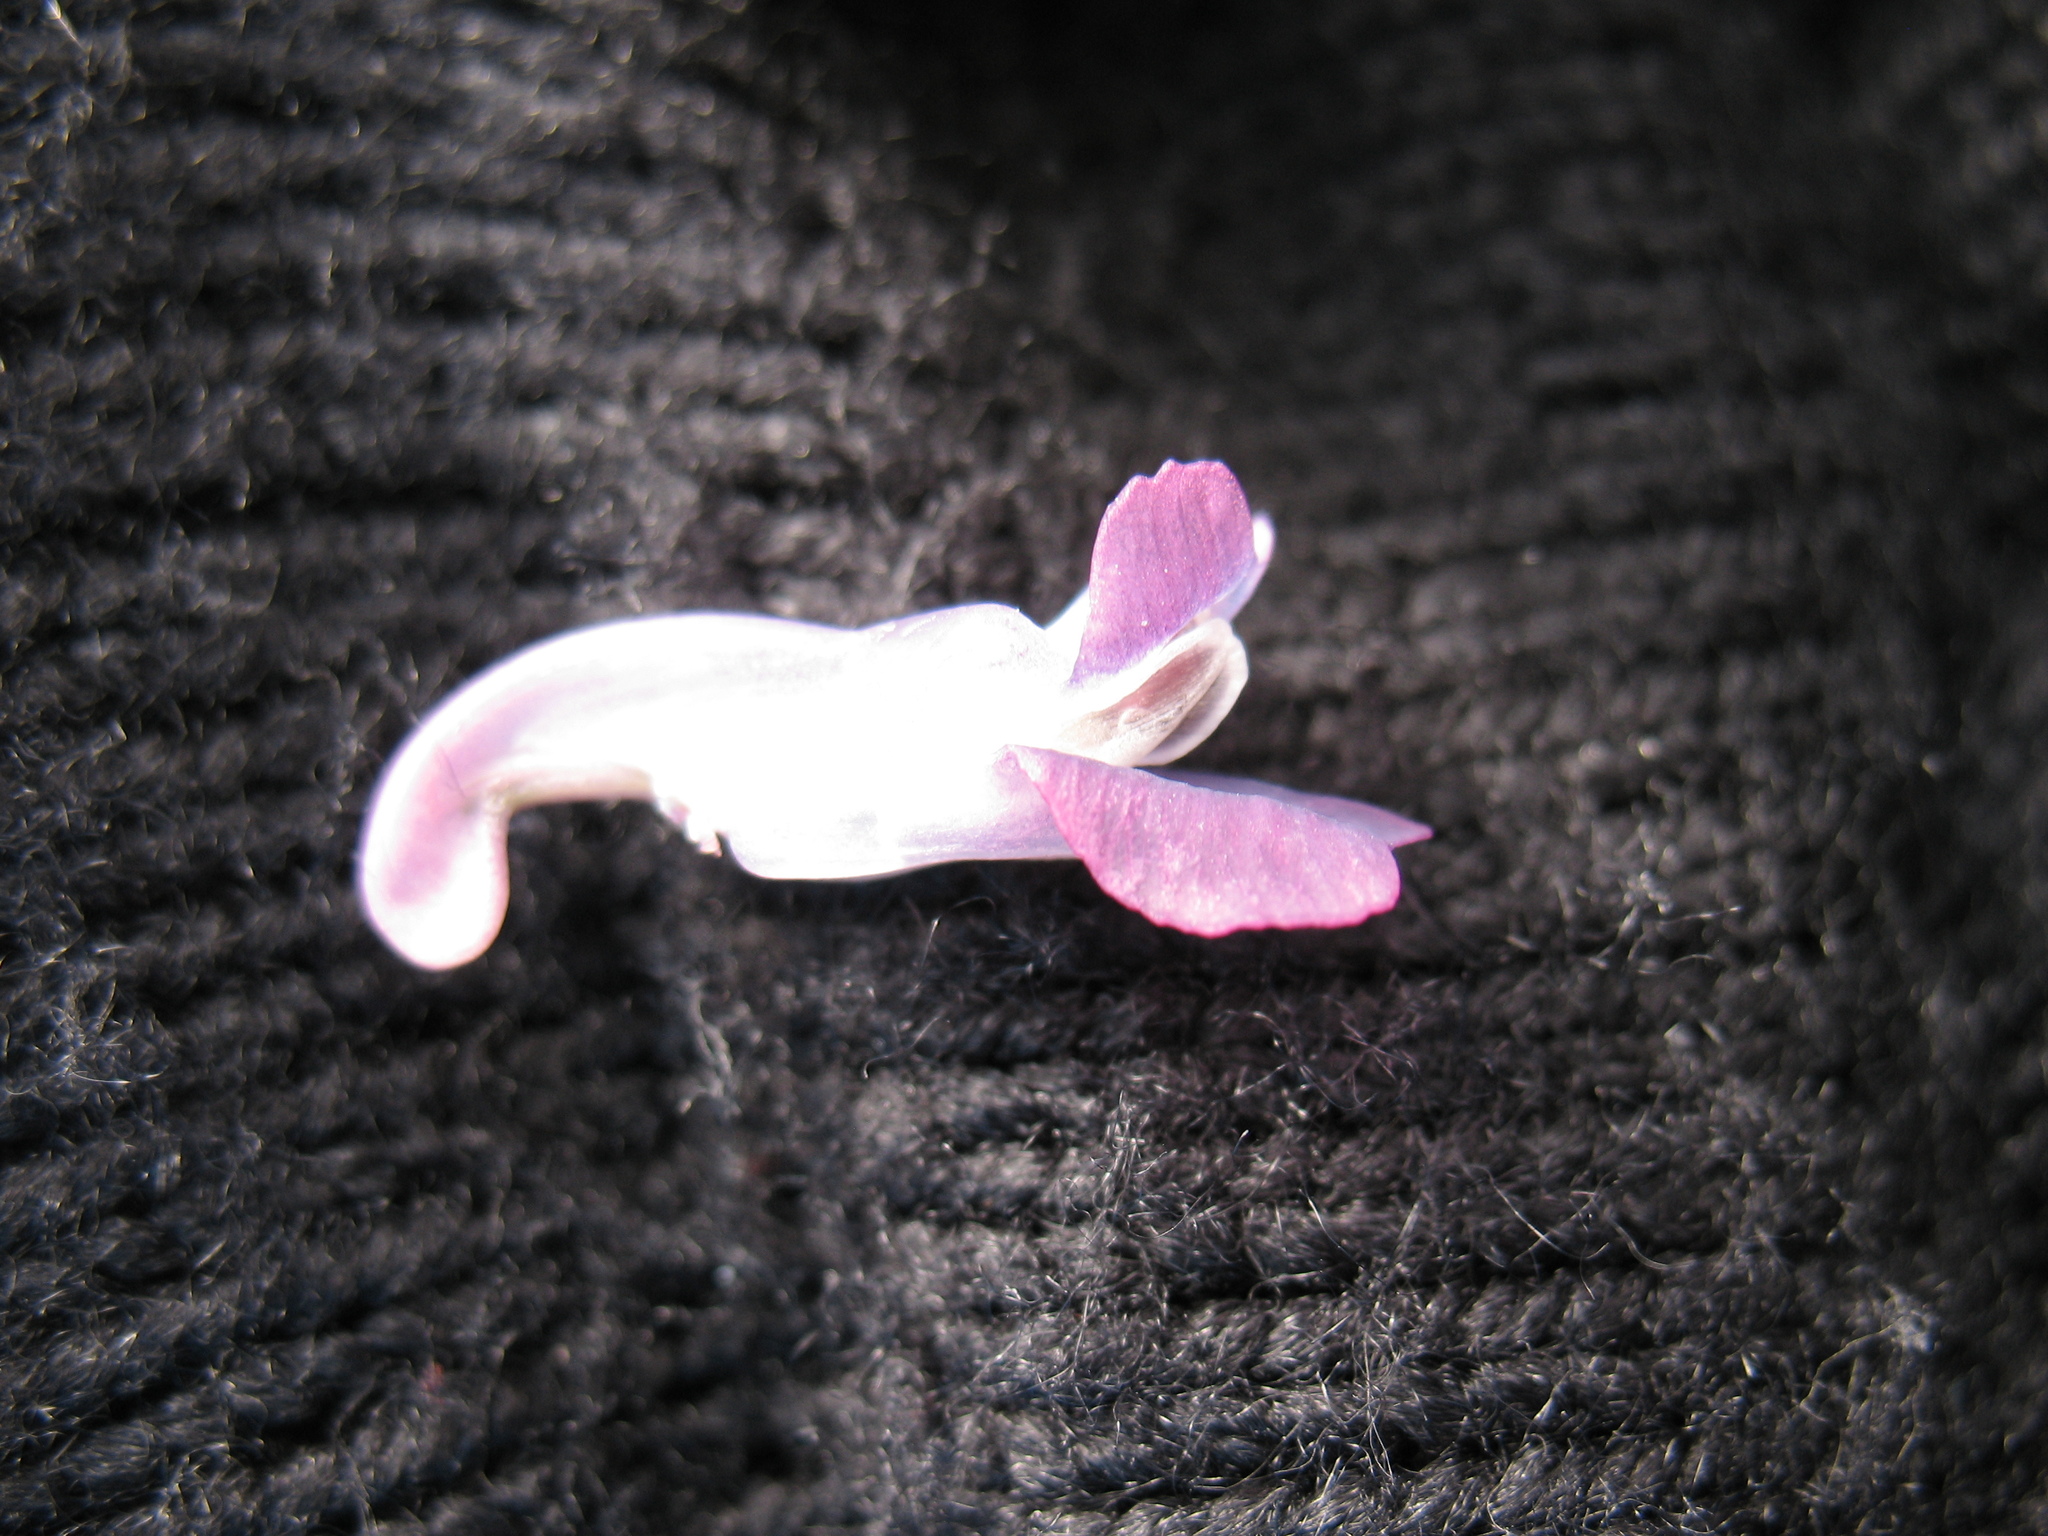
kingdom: Plantae
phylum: Tracheophyta
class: Magnoliopsida
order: Ranunculales
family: Papaveraceae
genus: Corydalis
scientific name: Corydalis cava
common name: Hollowroot
